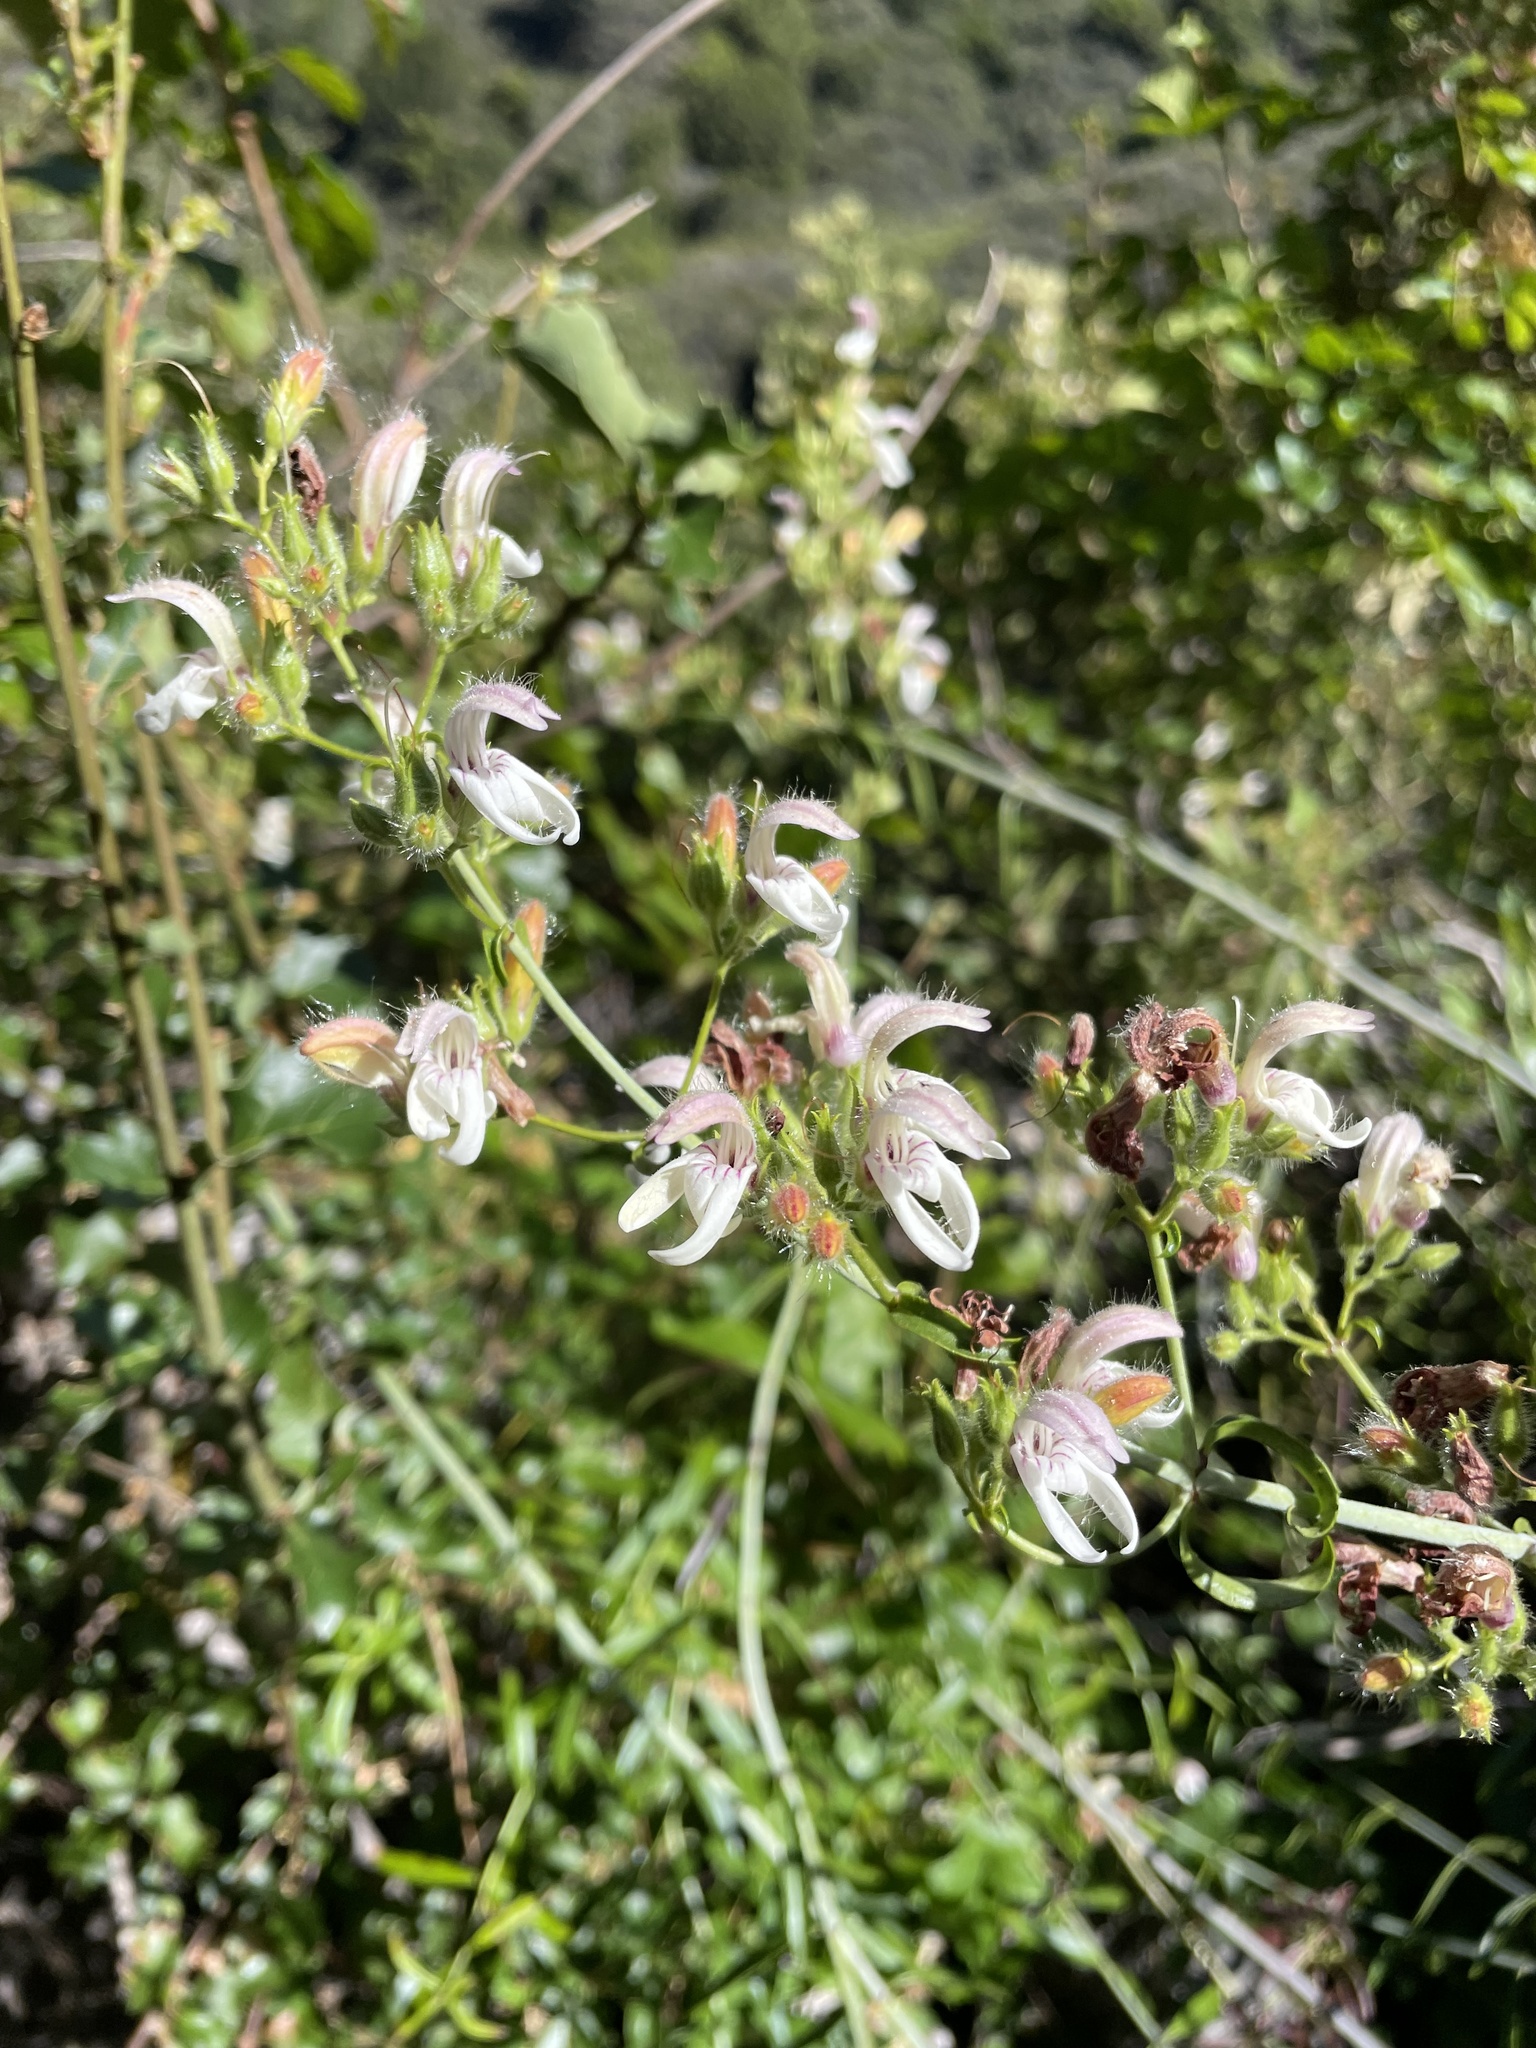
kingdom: Plantae
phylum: Tracheophyta
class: Magnoliopsida
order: Lamiales
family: Plantaginaceae
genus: Keckiella
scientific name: Keckiella breviflora
